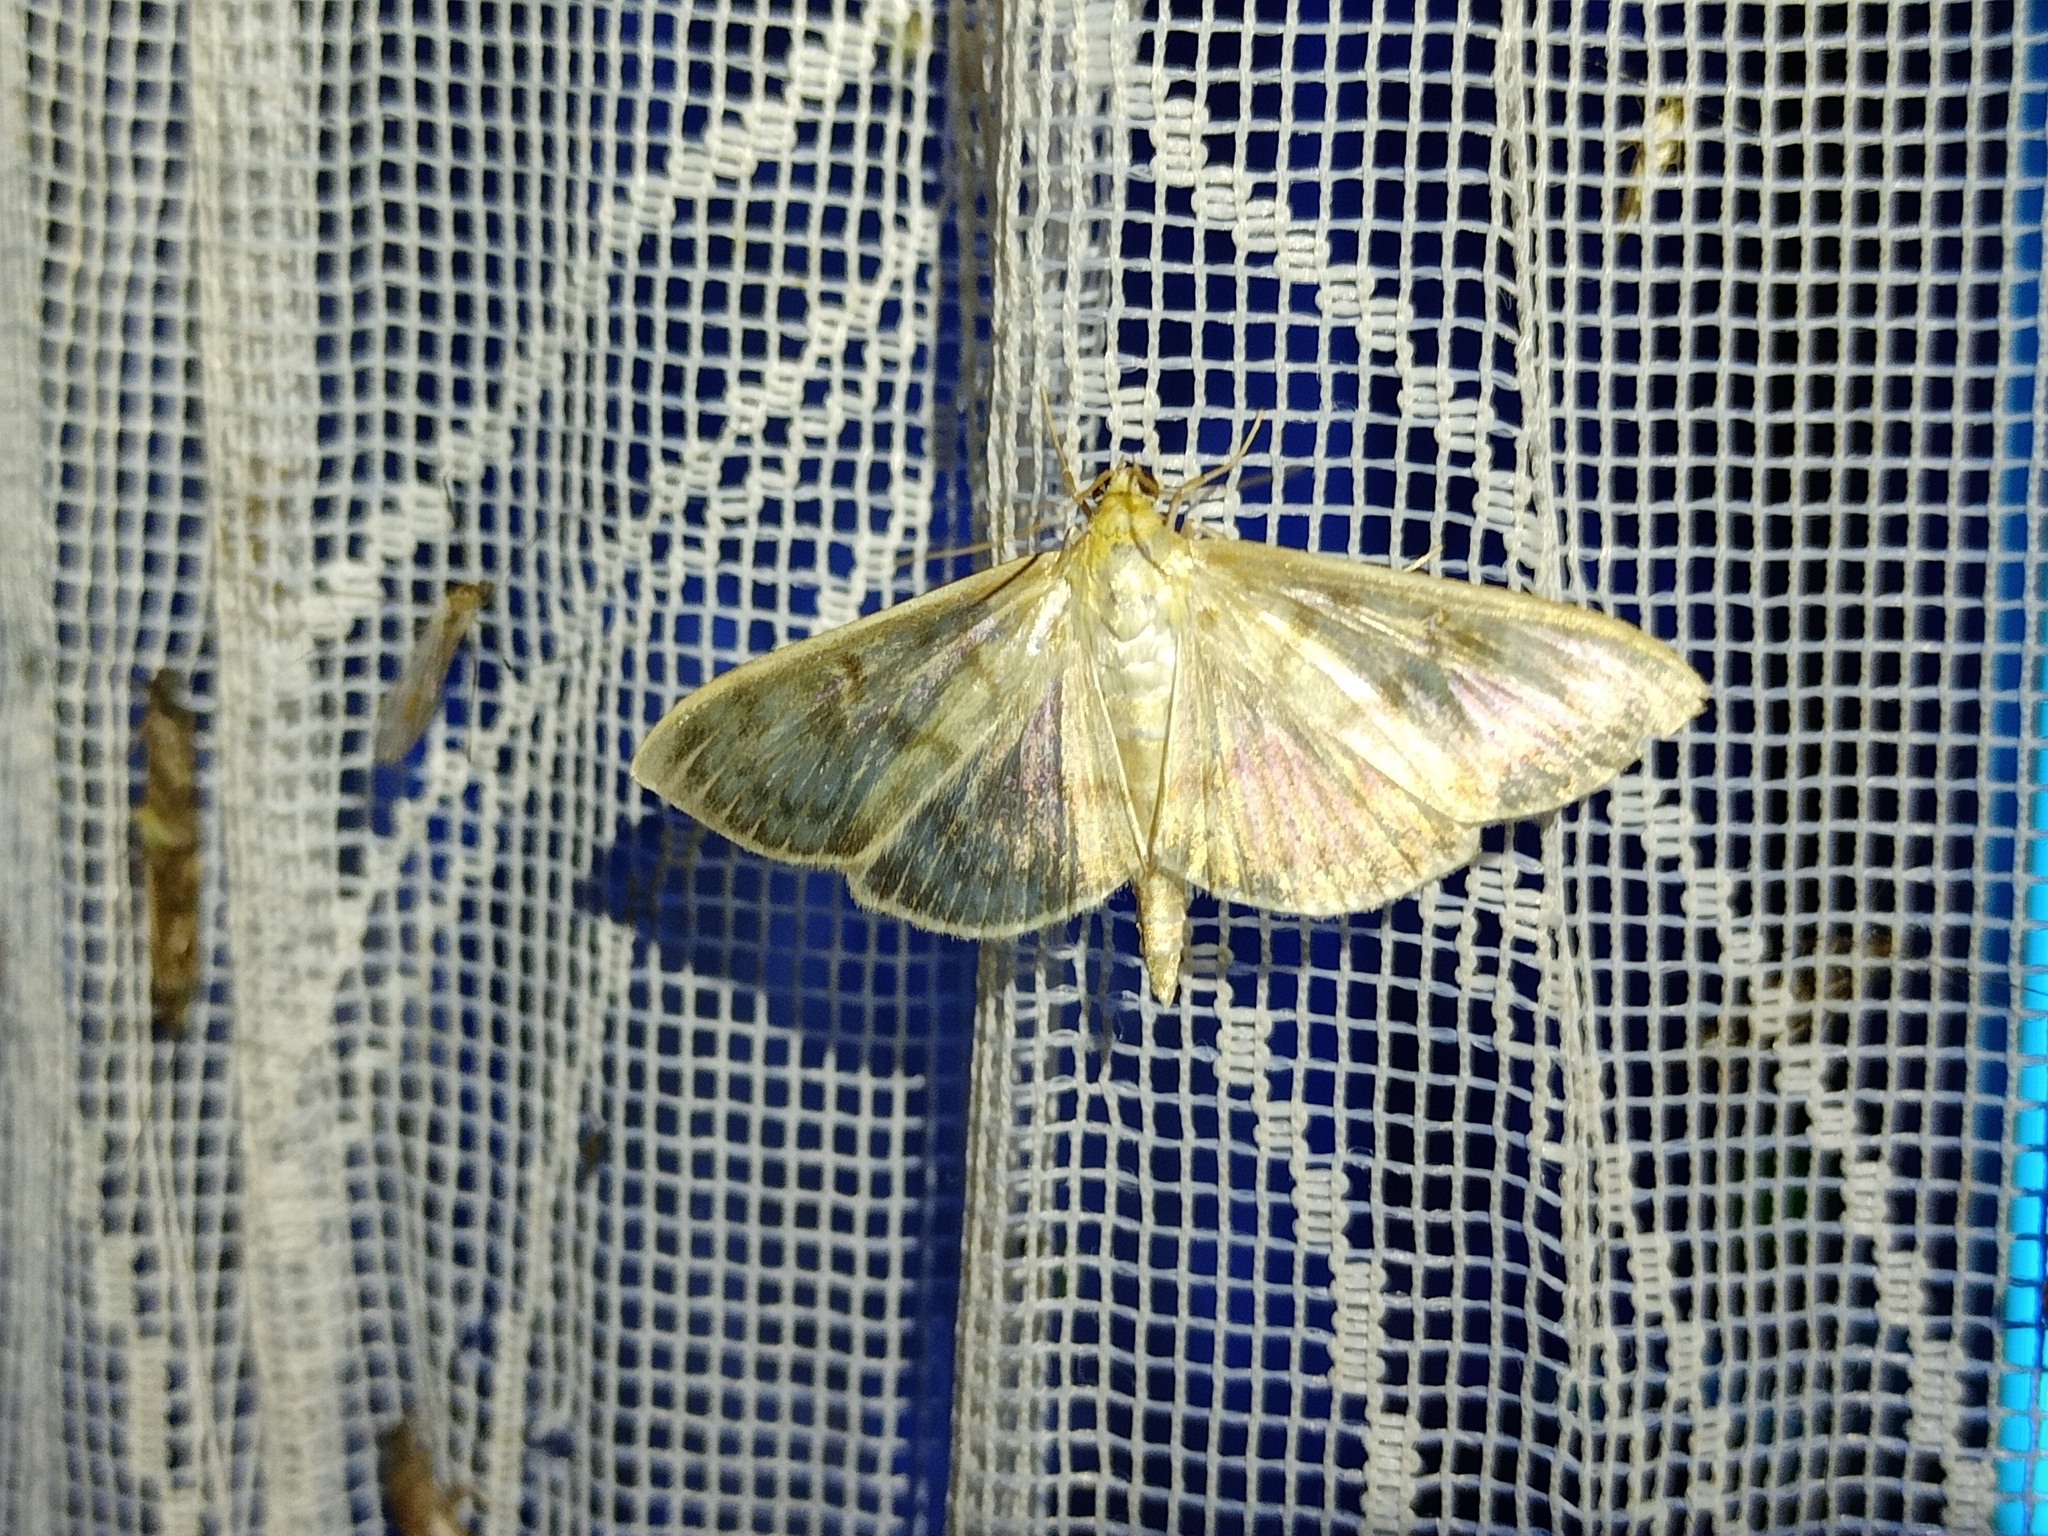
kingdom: Animalia
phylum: Arthropoda
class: Insecta
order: Lepidoptera
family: Crambidae
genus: Patania
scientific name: Patania ruralis
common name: Mother of pearl
